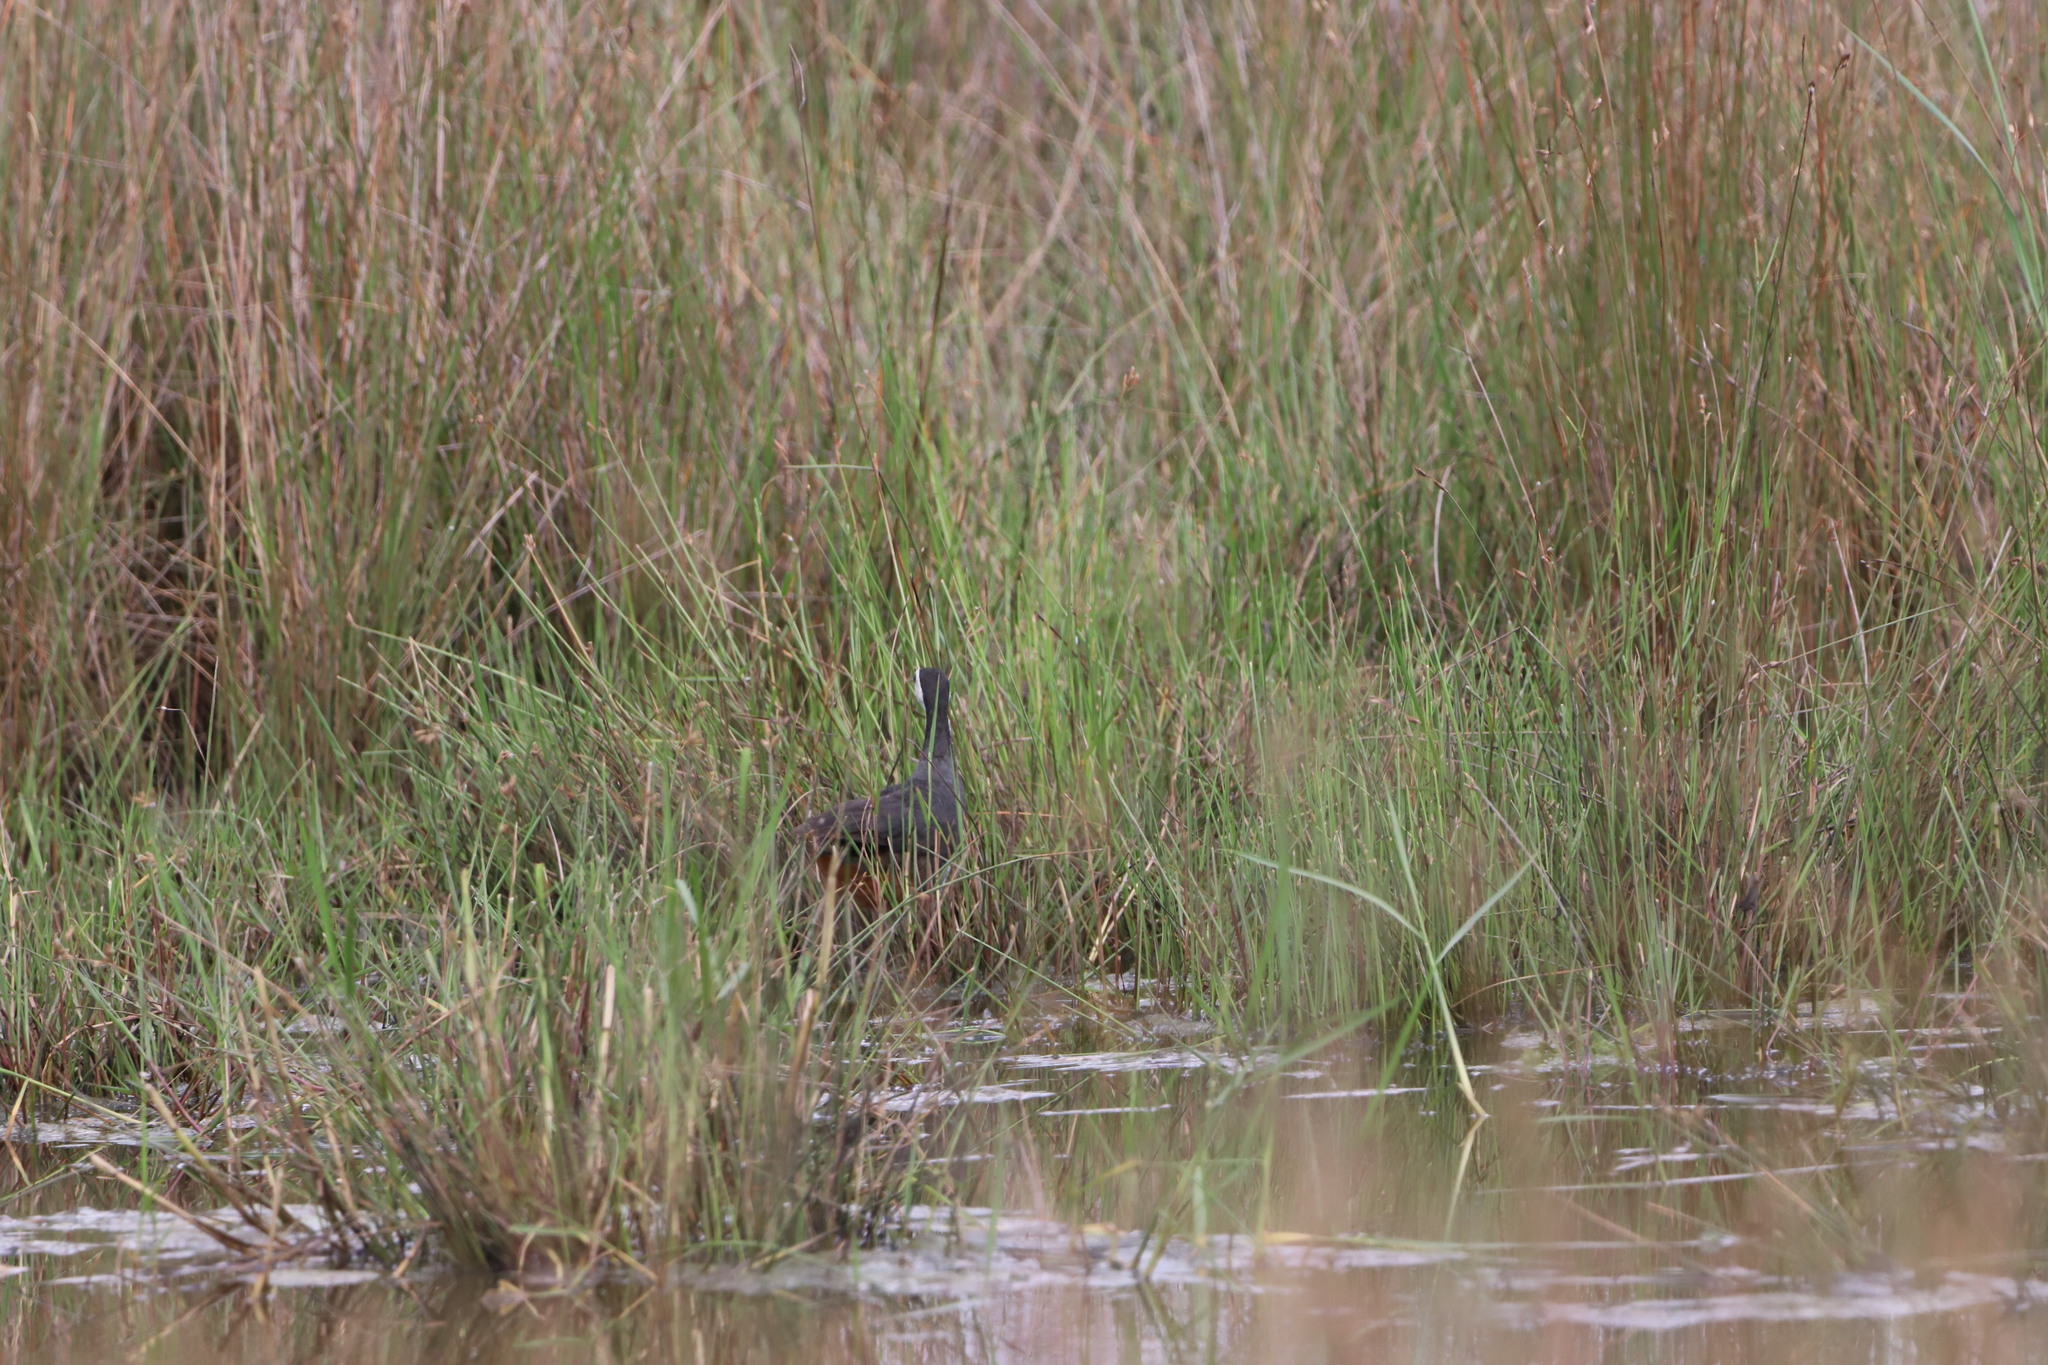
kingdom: Animalia
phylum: Chordata
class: Aves
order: Gruiformes
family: Rallidae
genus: Amaurornis
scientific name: Amaurornis phoenicurus
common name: White-breasted waterhen
